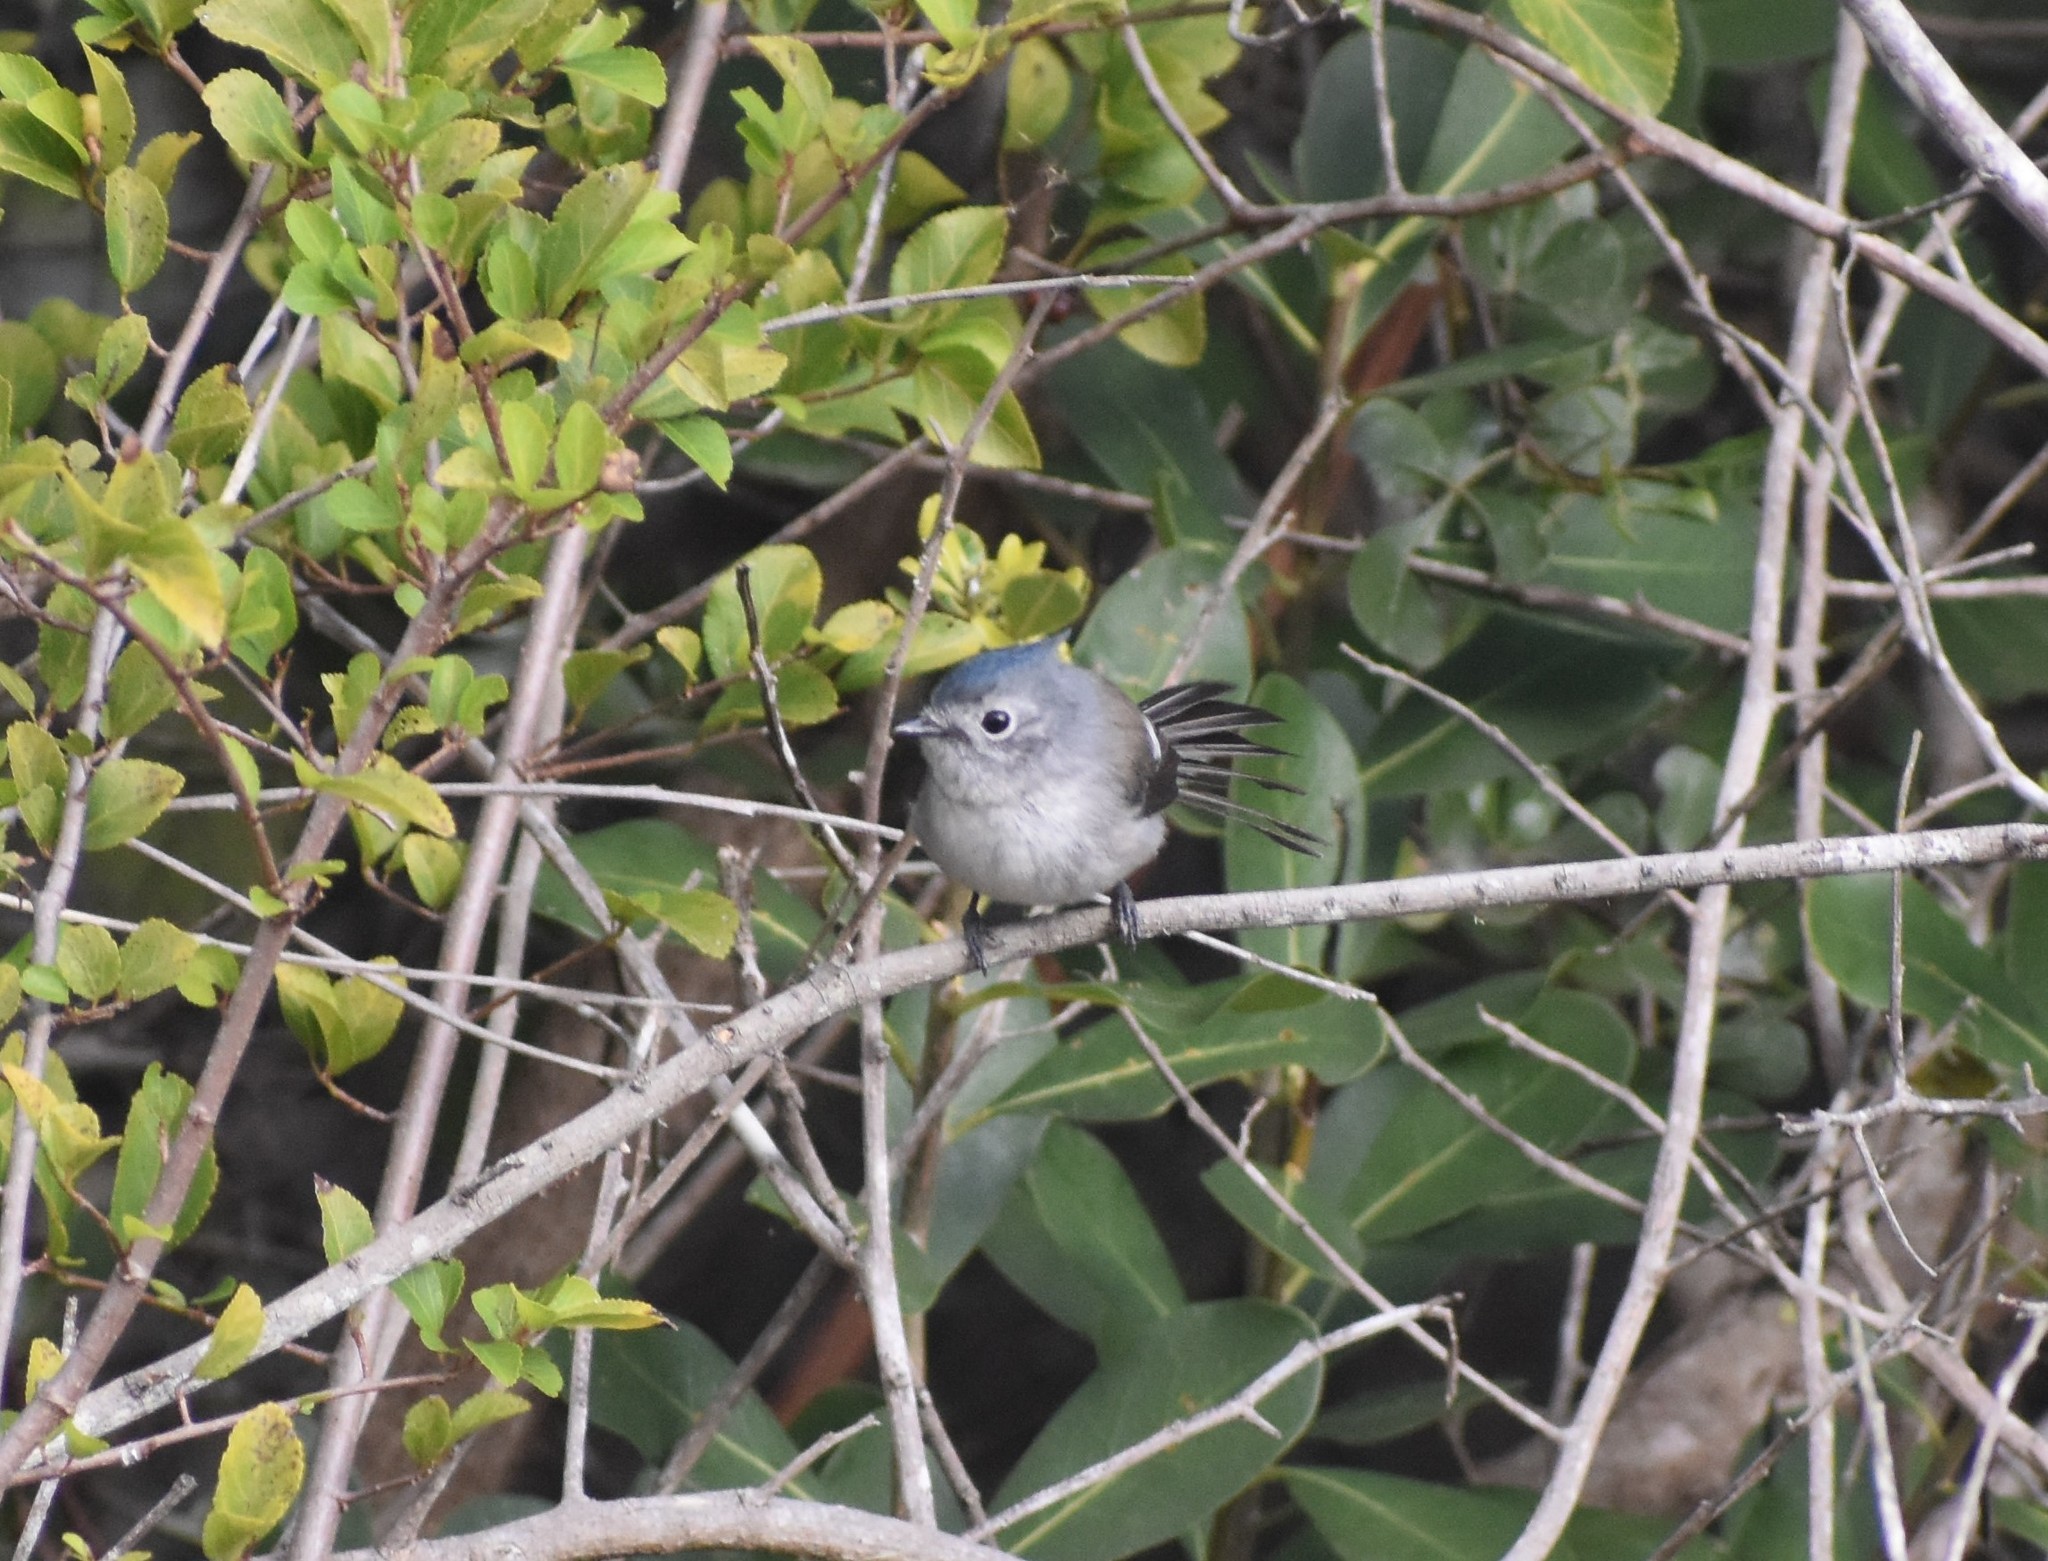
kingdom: Animalia
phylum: Chordata
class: Aves
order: Passeriformes
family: Monarchidae
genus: Trochocercus
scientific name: Trochocercus cyanomelas
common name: Blue-mantled crested flycatcher
